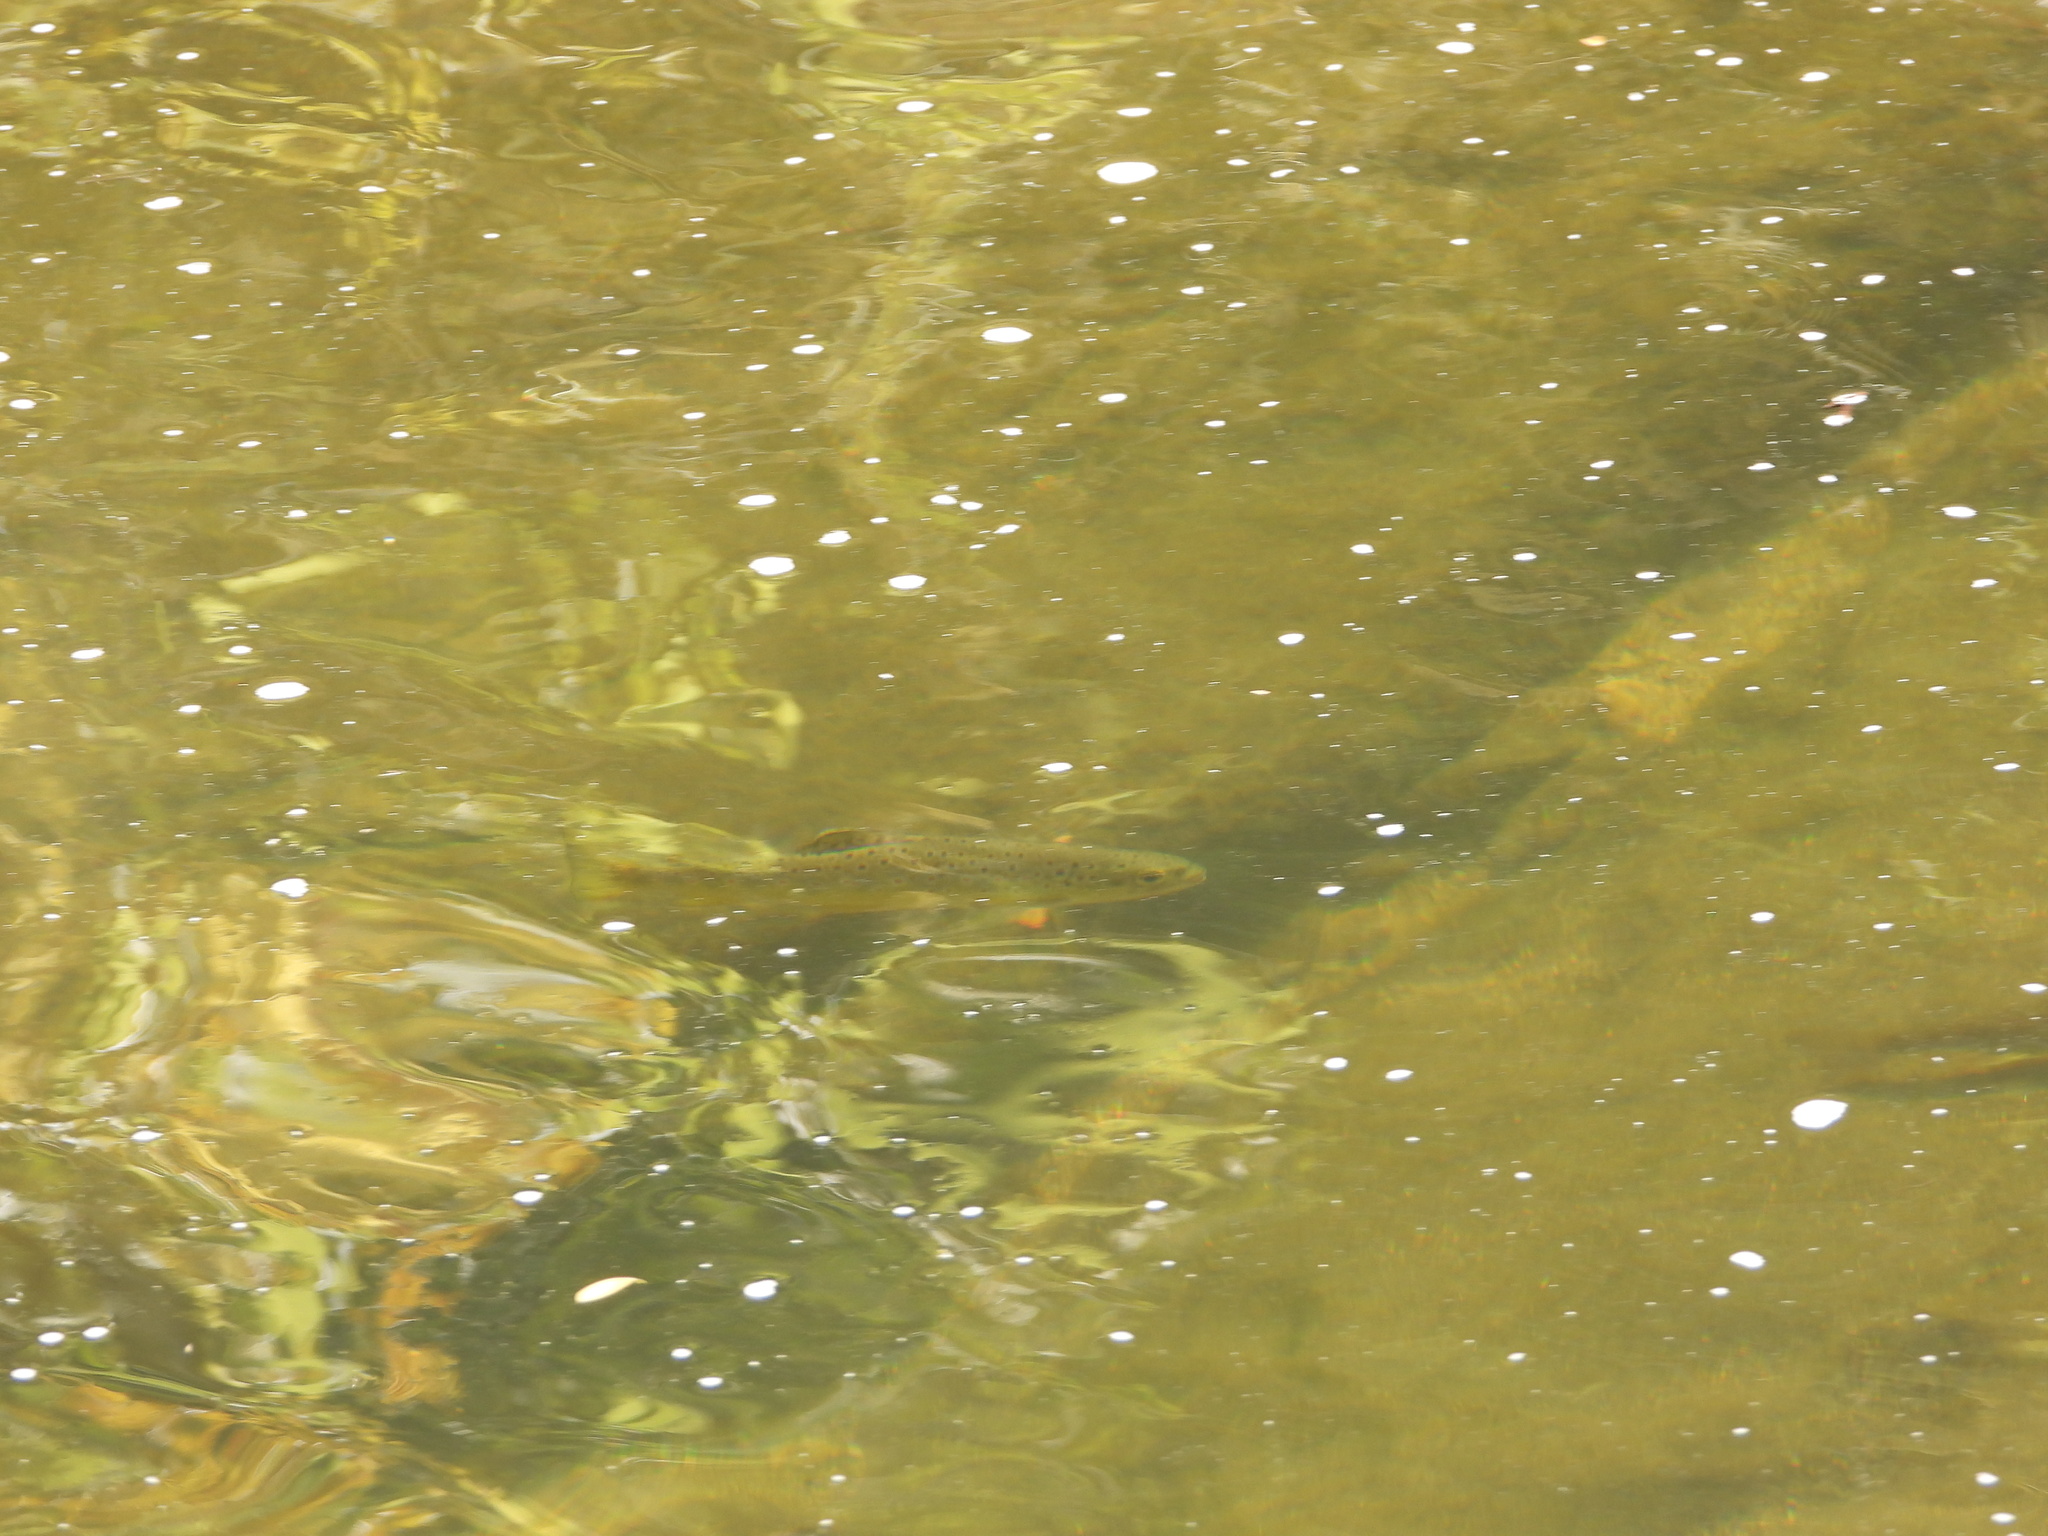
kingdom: Animalia
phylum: Chordata
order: Salmoniformes
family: Salmonidae
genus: Salmo
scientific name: Salmo trutta
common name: Brown trout
